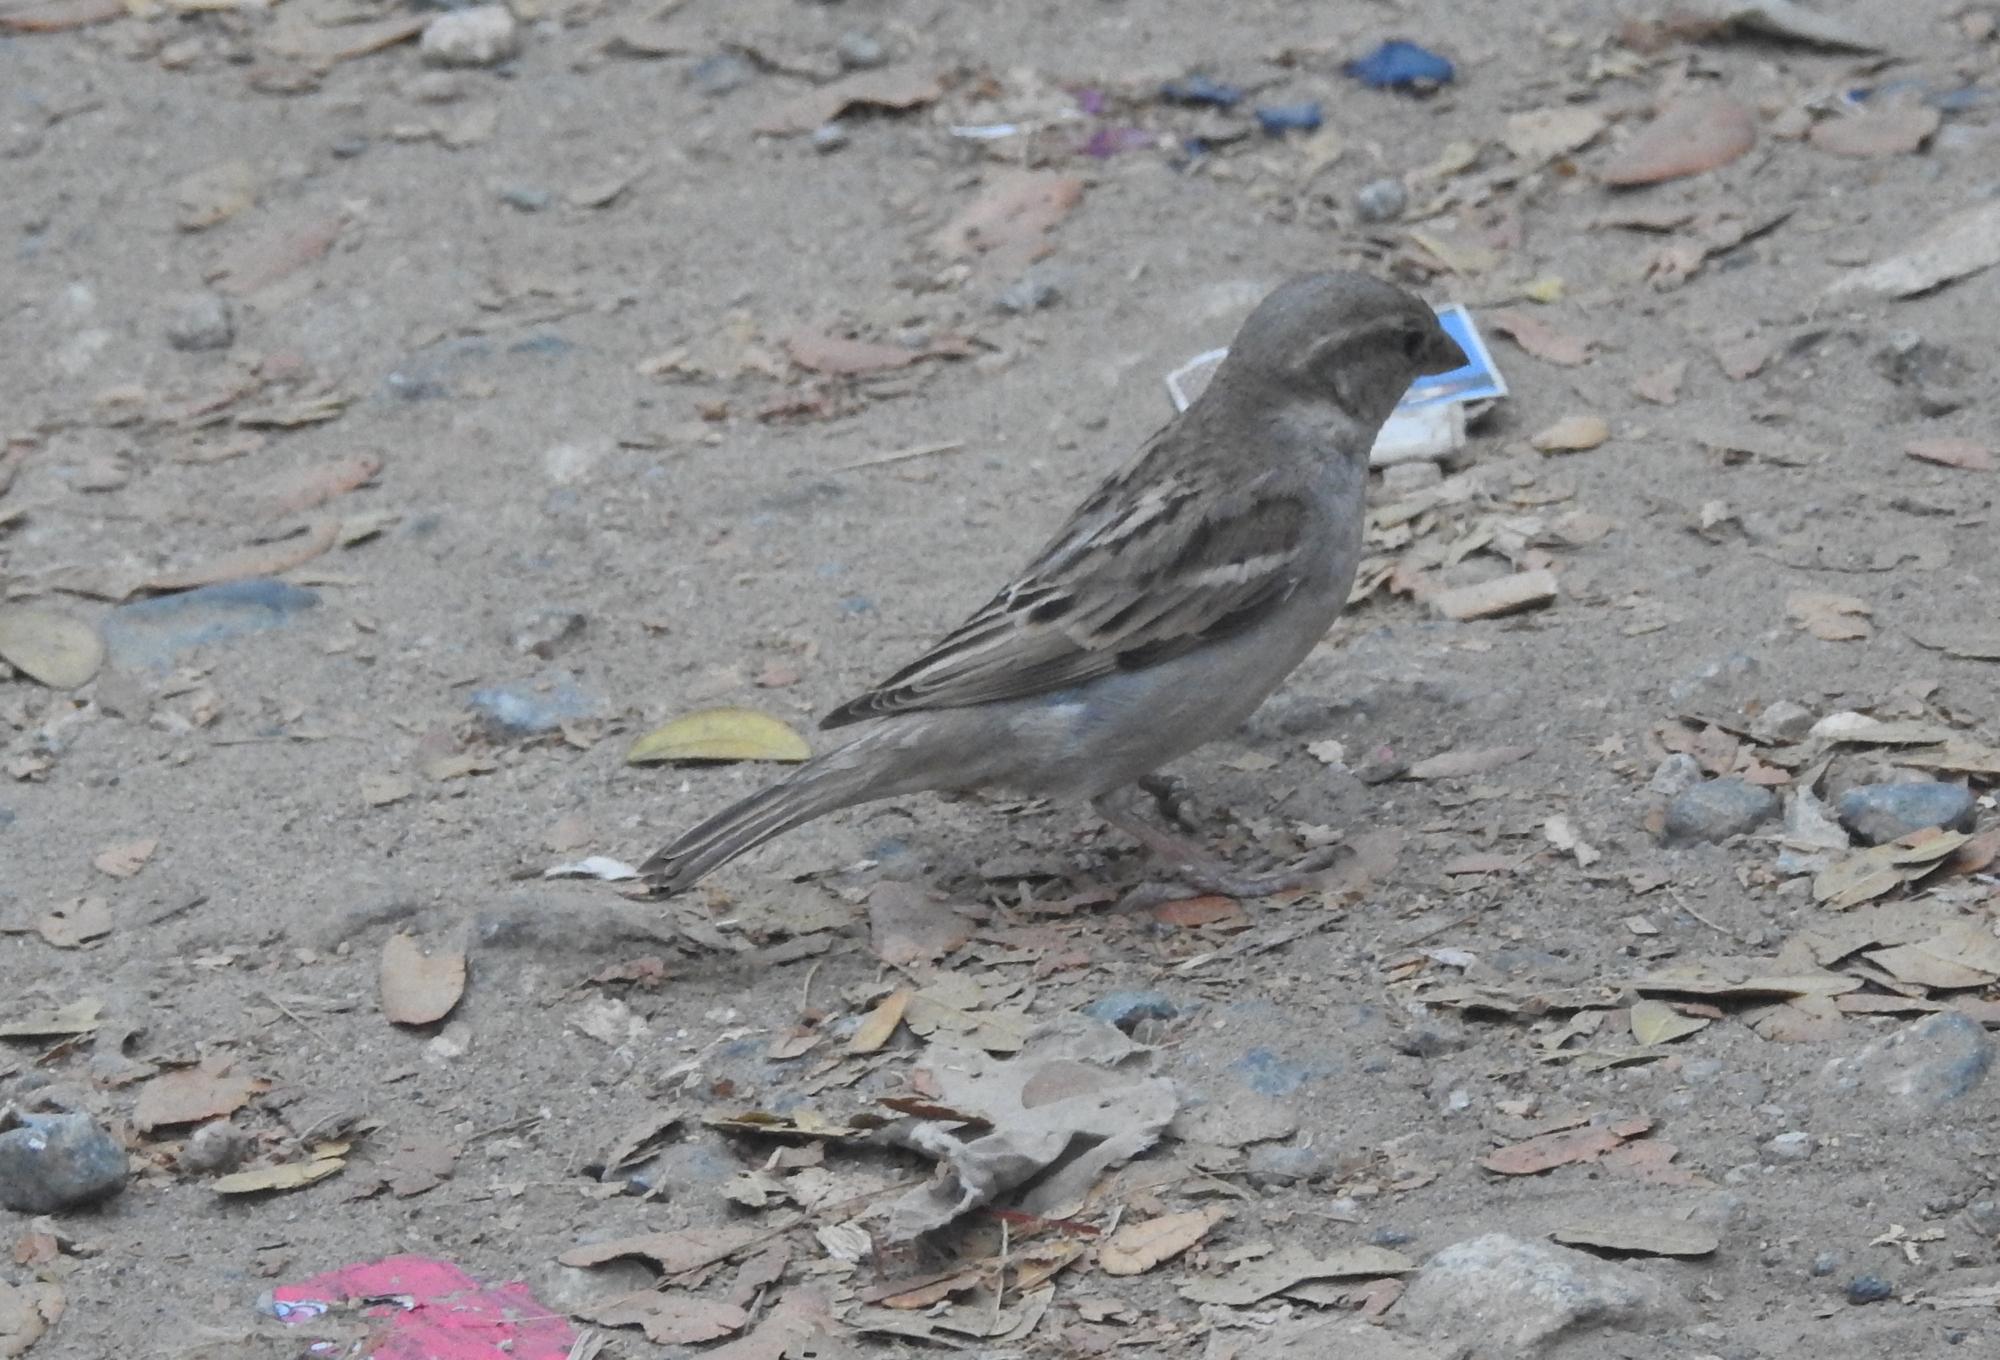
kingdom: Animalia
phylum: Chordata
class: Aves
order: Passeriformes
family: Passeridae
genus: Passer
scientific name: Passer domesticus
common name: House sparrow
